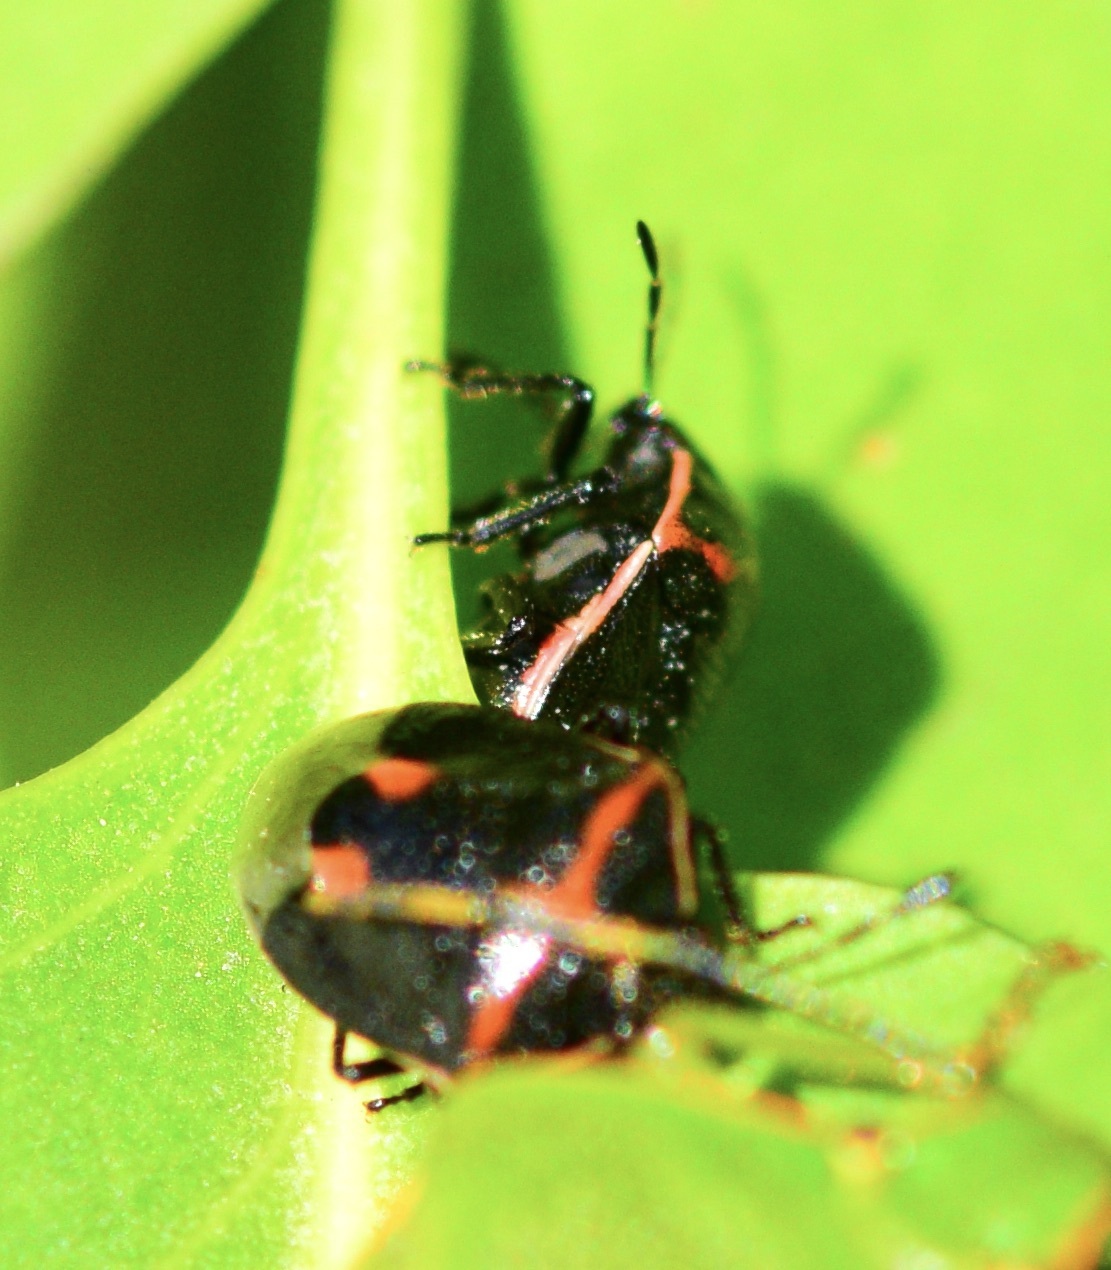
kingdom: Animalia
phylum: Arthropoda
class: Insecta
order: Hemiptera
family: Pentatomidae
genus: Cosmopepla
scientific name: Cosmopepla lintneriana
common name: Twice-stabbed stink bug
